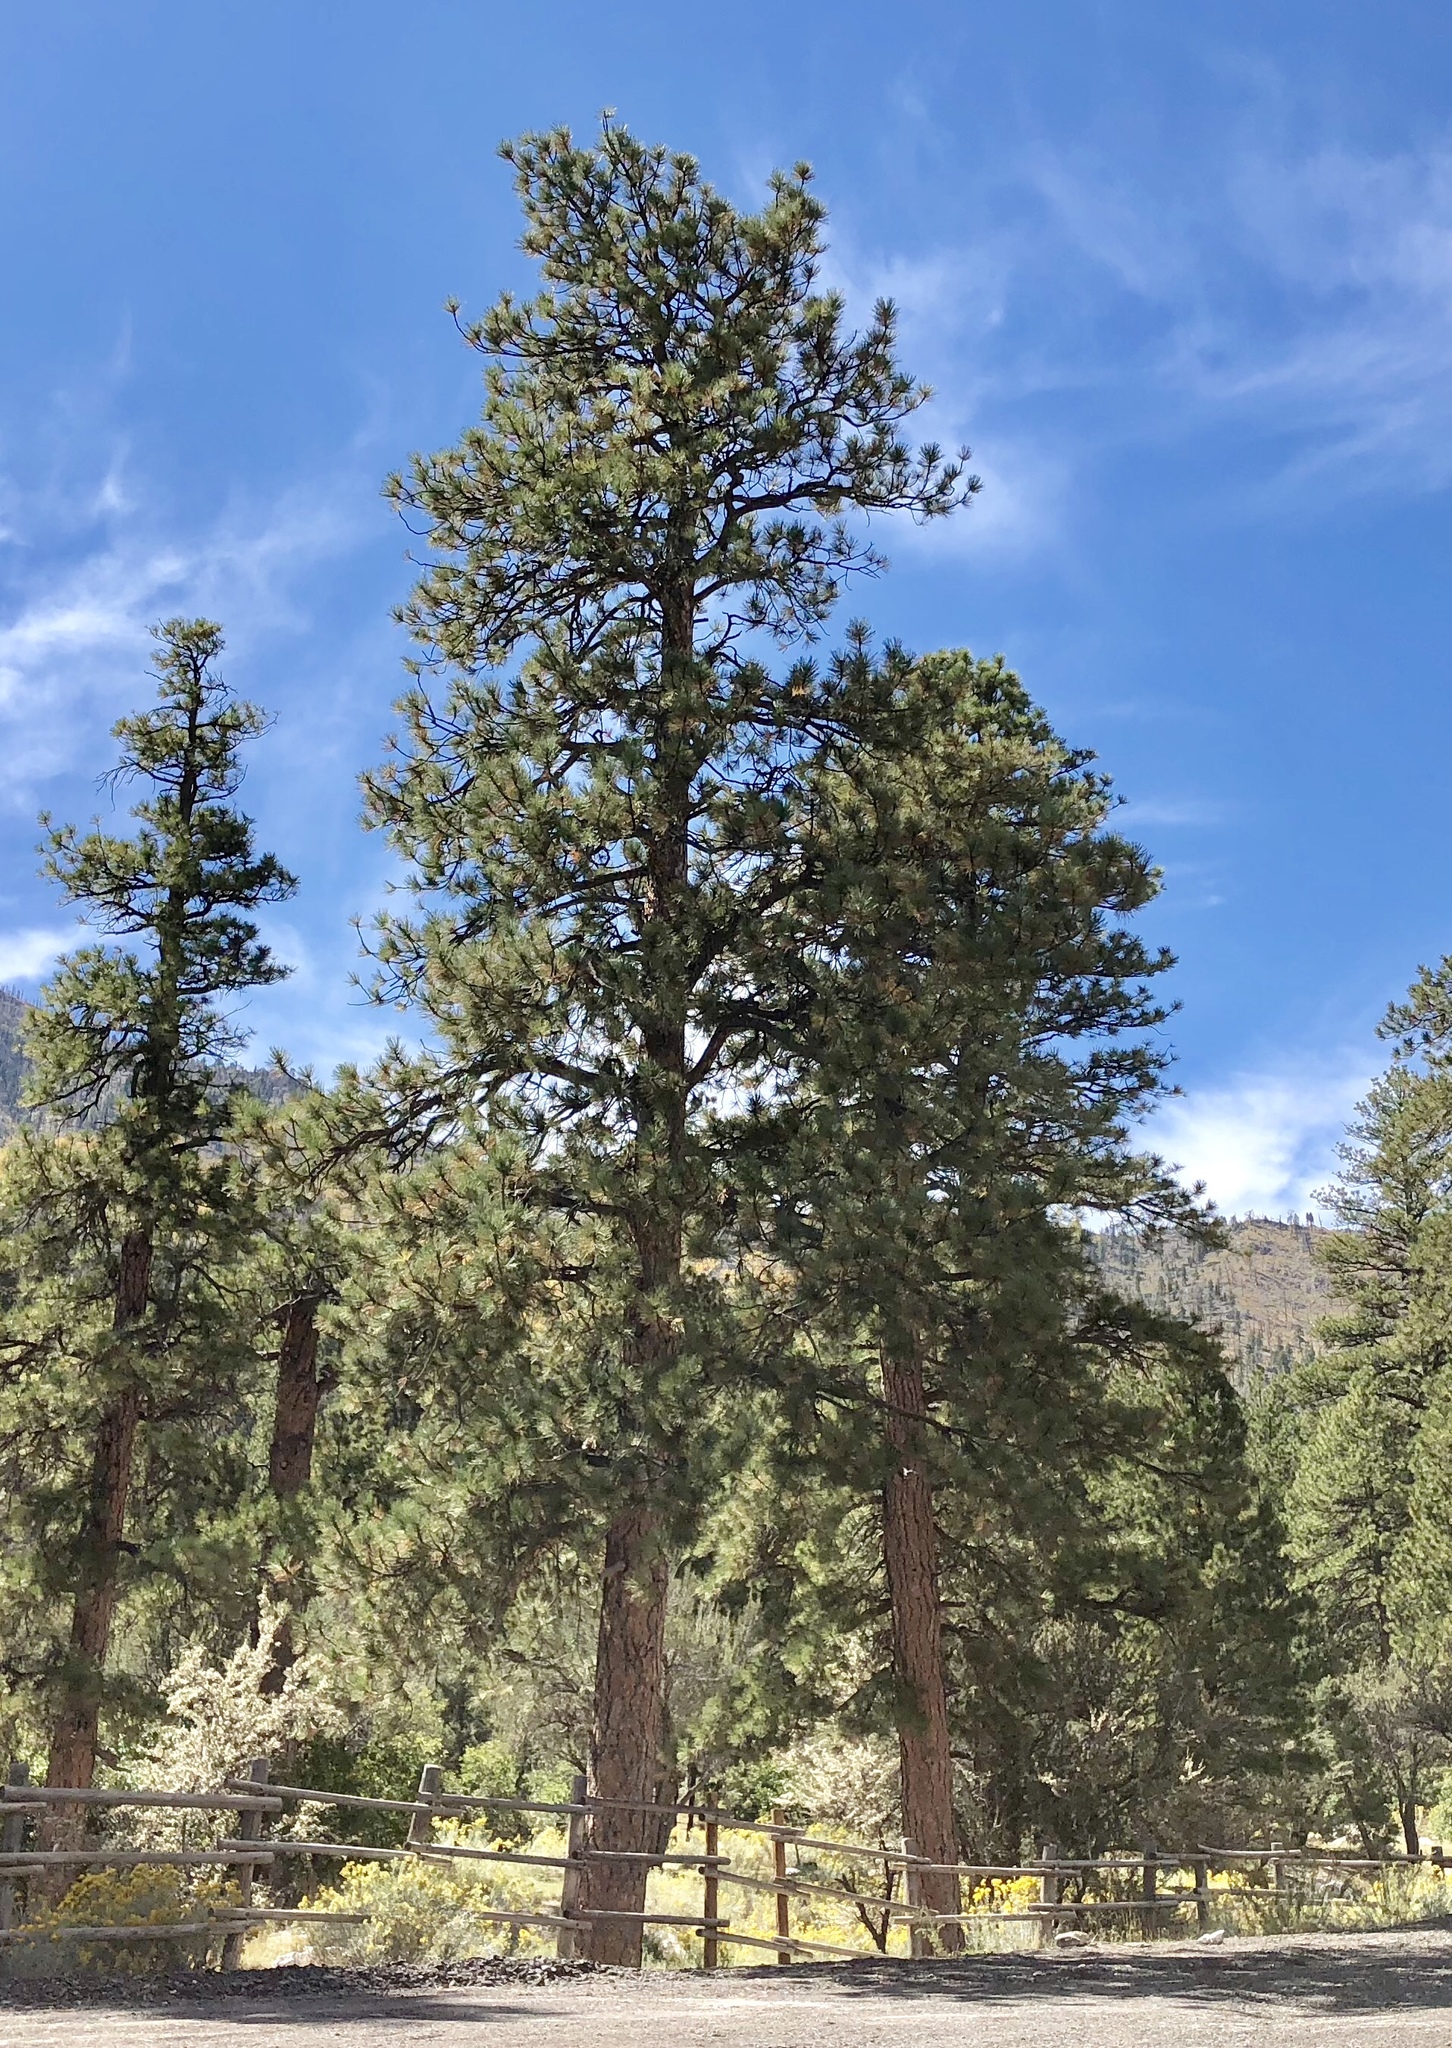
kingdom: Plantae
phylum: Tracheophyta
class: Pinopsida
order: Pinales
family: Pinaceae
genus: Pinus
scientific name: Pinus ponderosa
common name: Western yellow-pine
